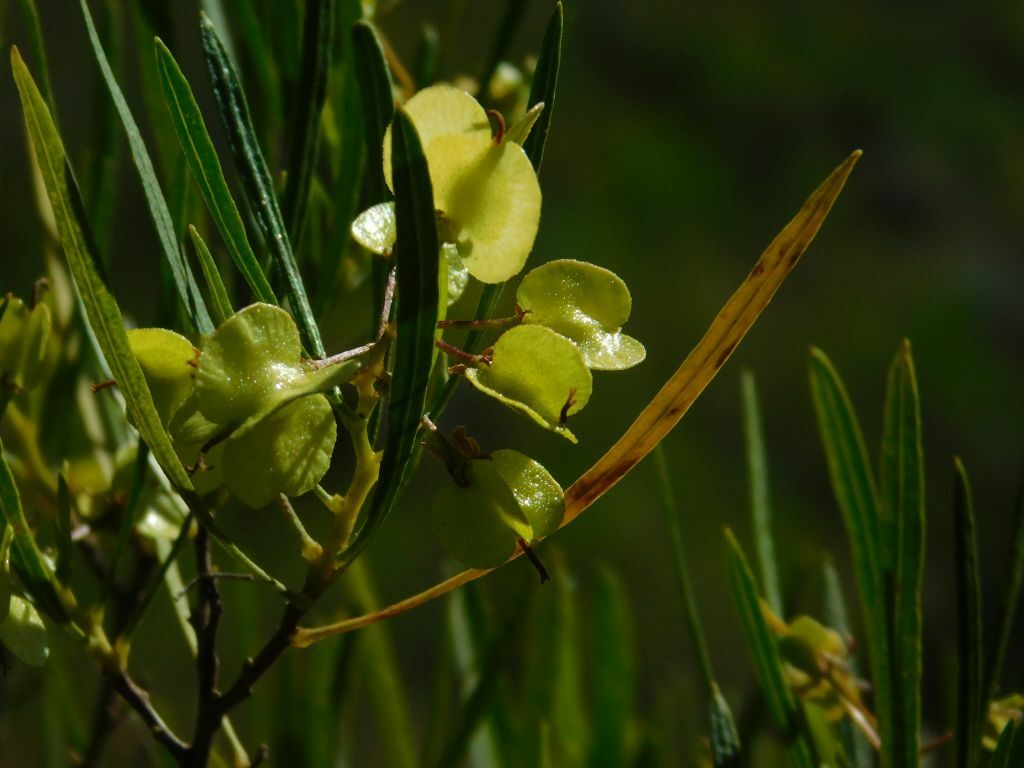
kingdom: Plantae
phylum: Tracheophyta
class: Magnoliopsida
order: Sapindales
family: Sapindaceae
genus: Dodonaea
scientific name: Dodonaea viscosa
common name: Hopbush
